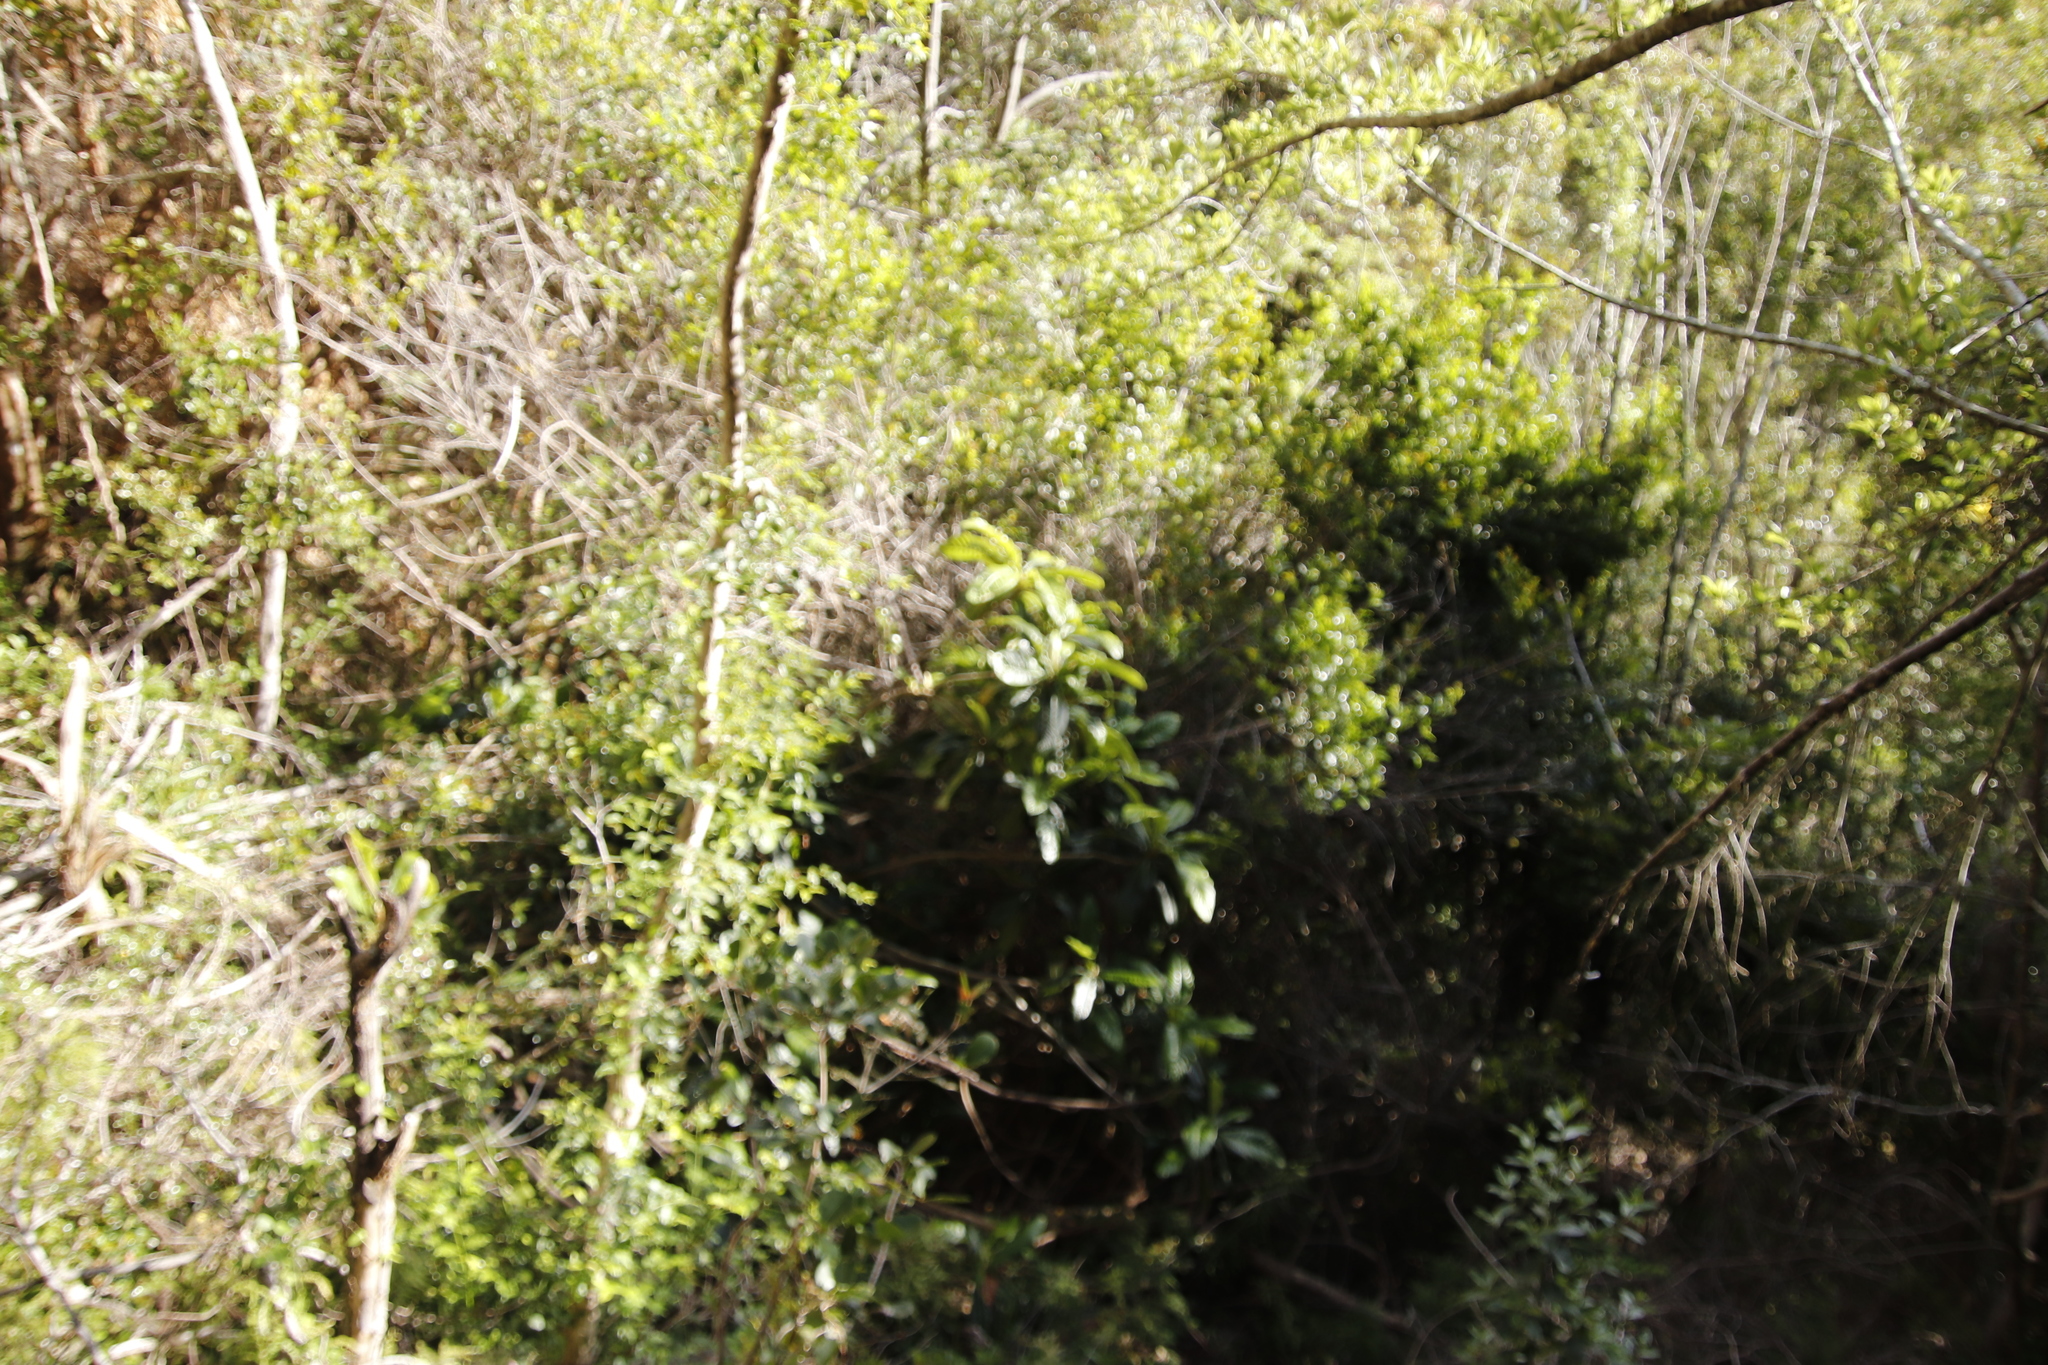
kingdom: Plantae
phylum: Tracheophyta
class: Magnoliopsida
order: Rosales
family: Rosaceae
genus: Rhaphiolepis
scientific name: Rhaphiolepis bibas
